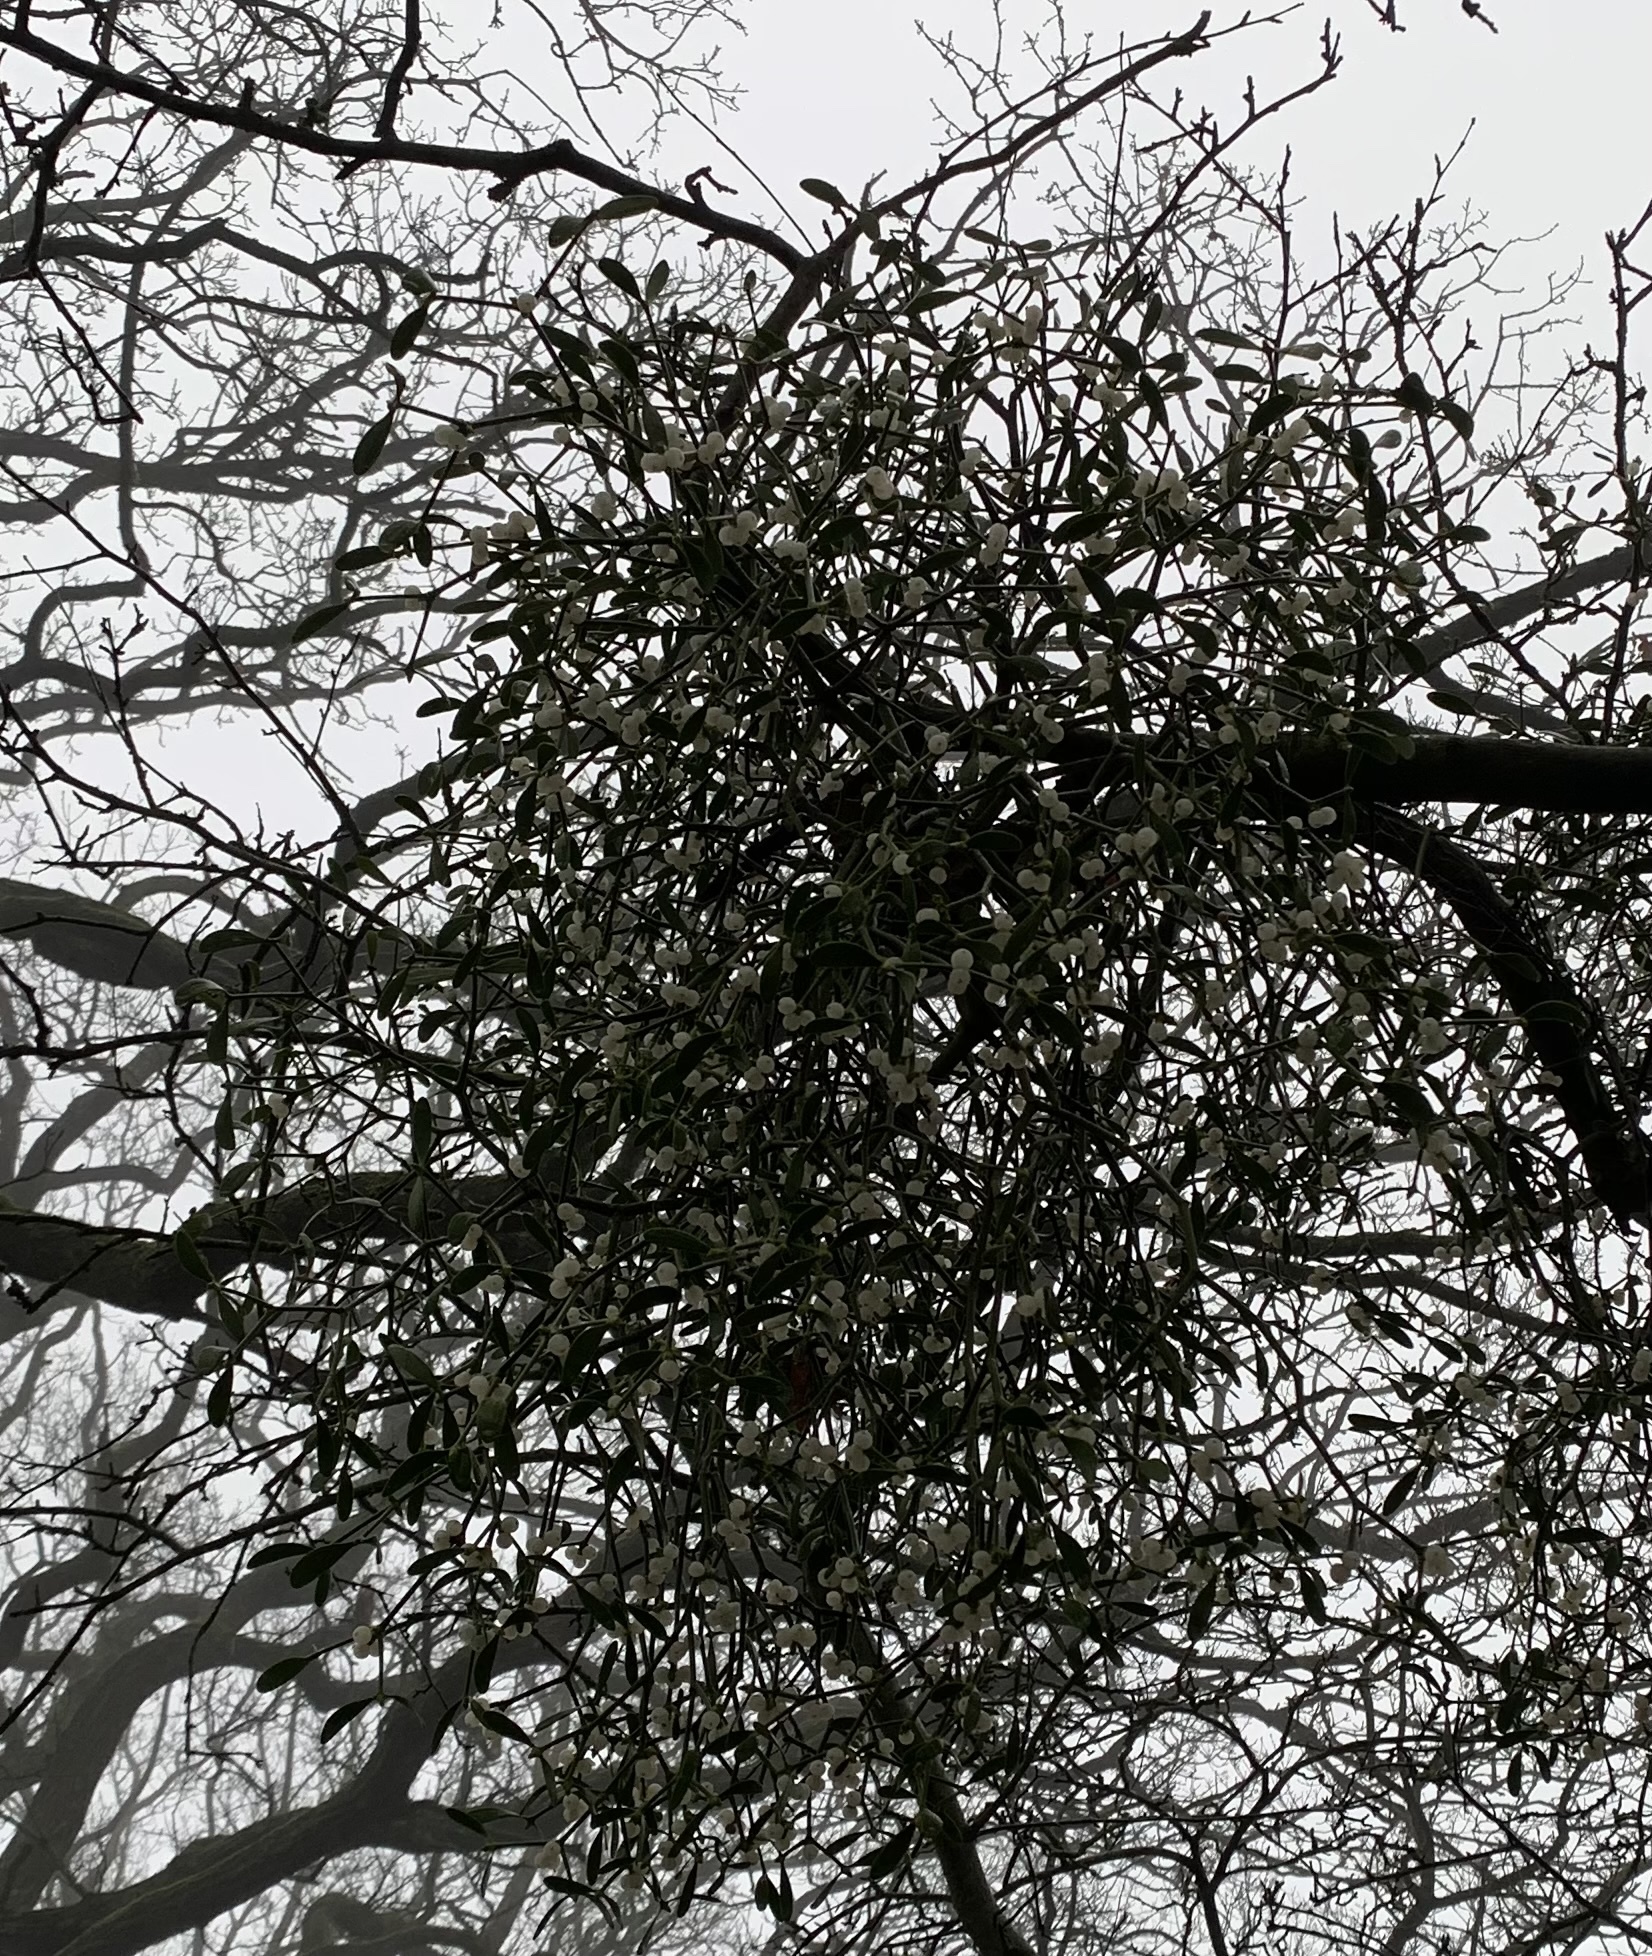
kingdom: Plantae
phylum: Tracheophyta
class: Magnoliopsida
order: Santalales
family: Viscaceae
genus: Viscum
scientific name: Viscum album
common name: Mistletoe
